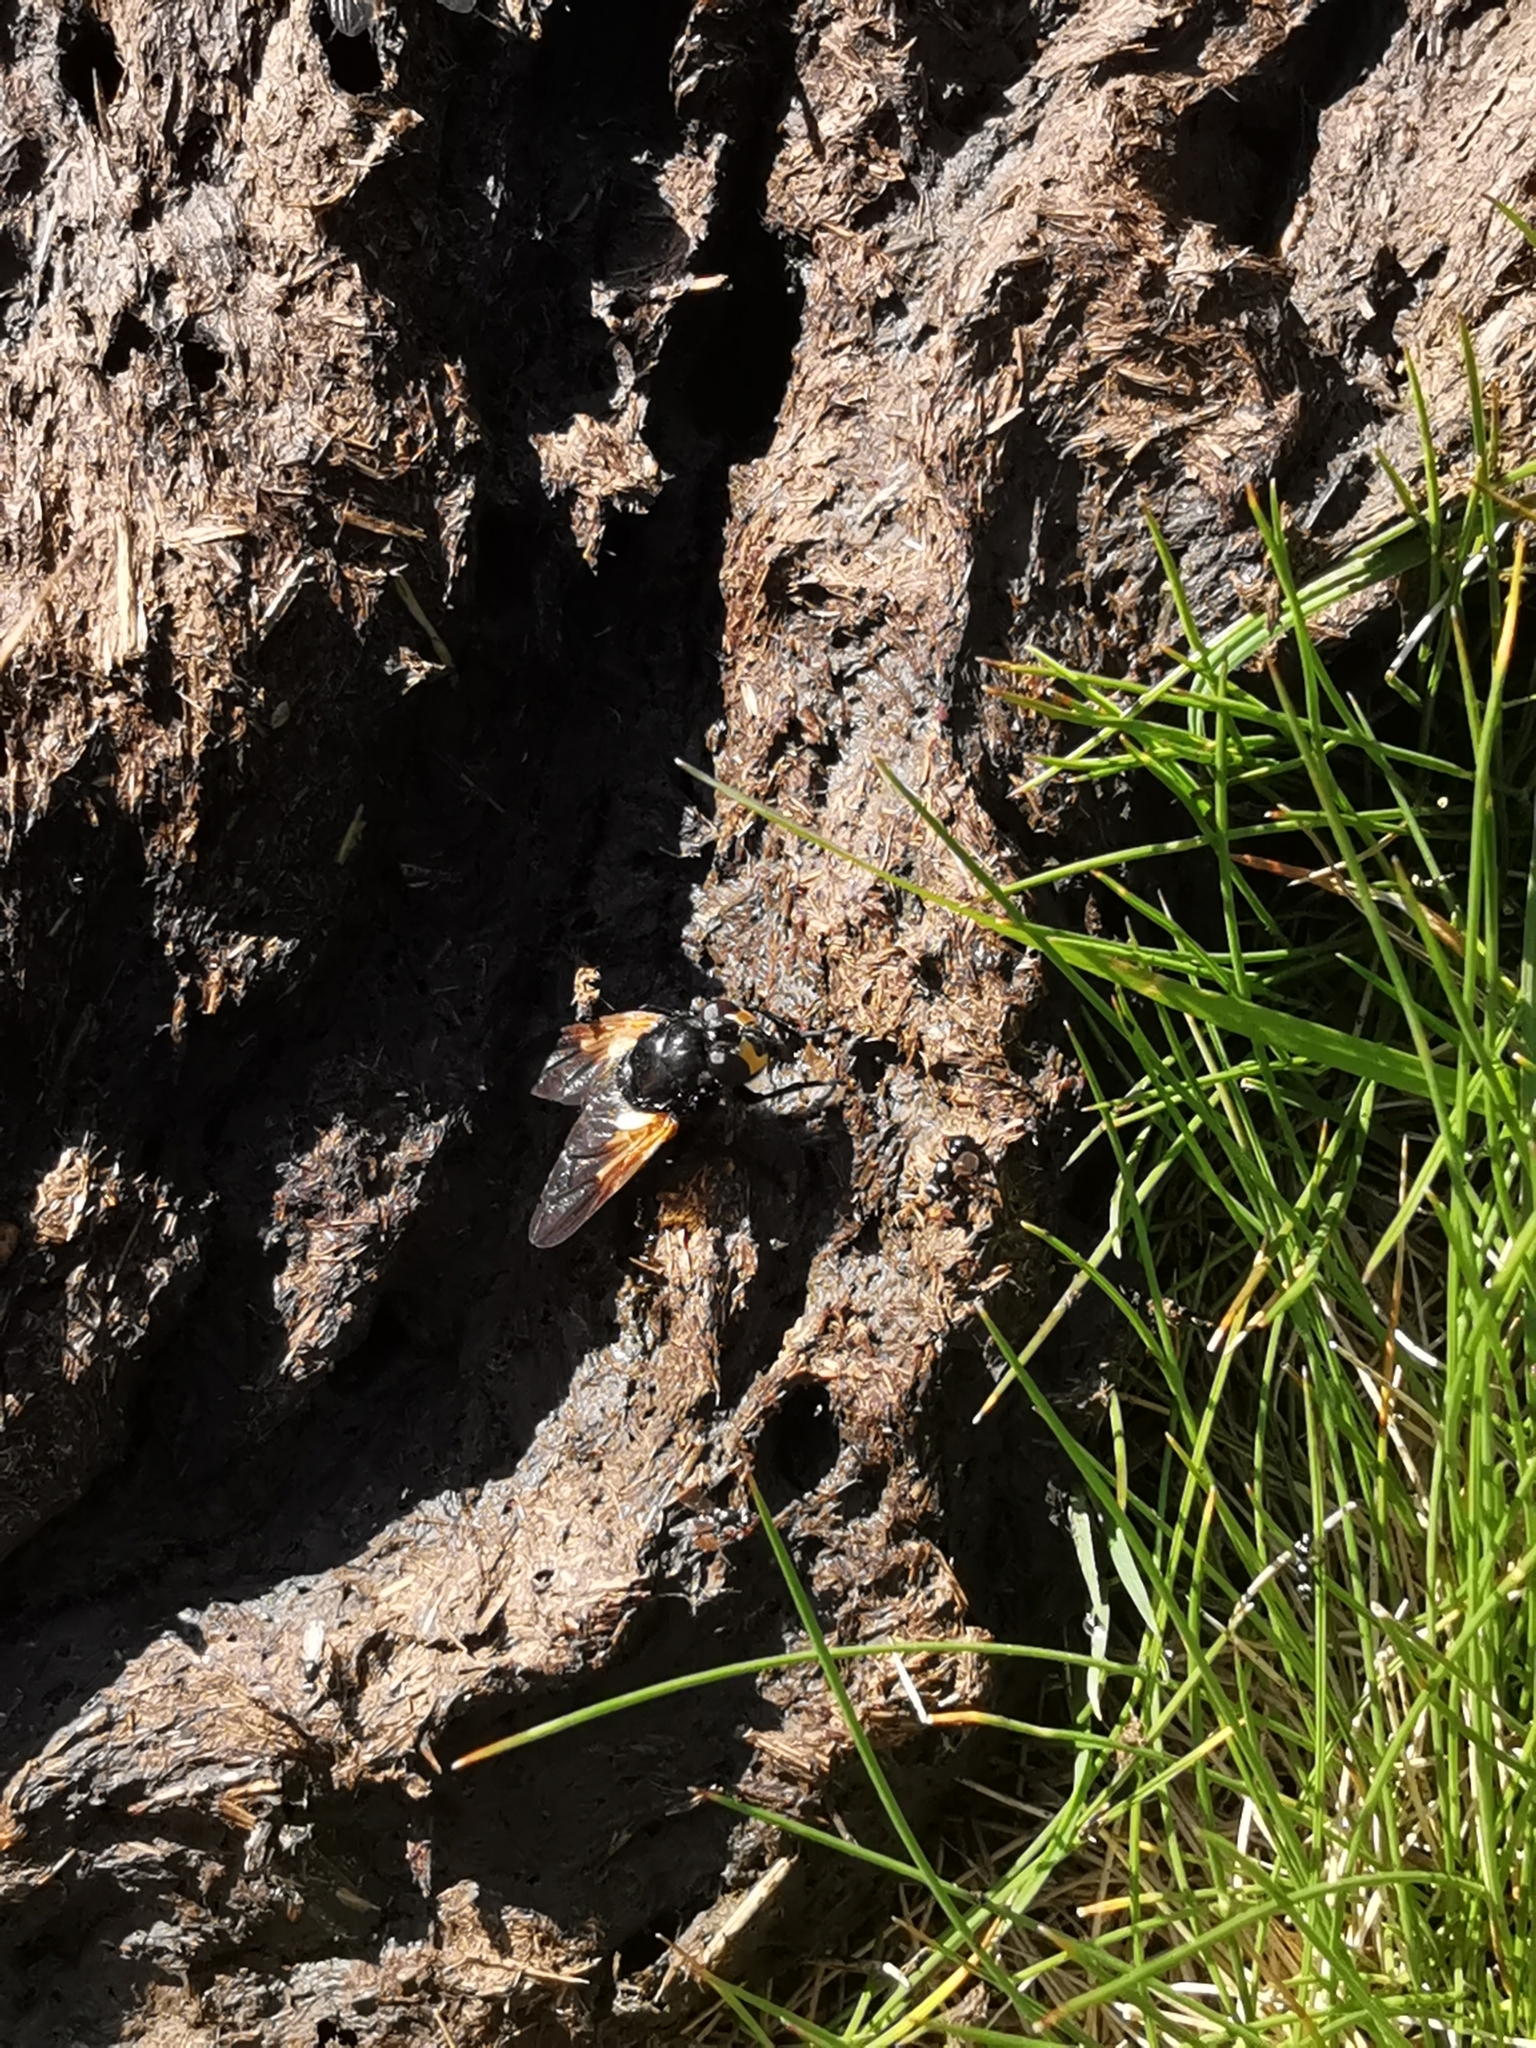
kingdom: Animalia
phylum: Arthropoda
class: Insecta
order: Diptera
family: Muscidae
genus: Mesembrina
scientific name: Mesembrina meridiana
